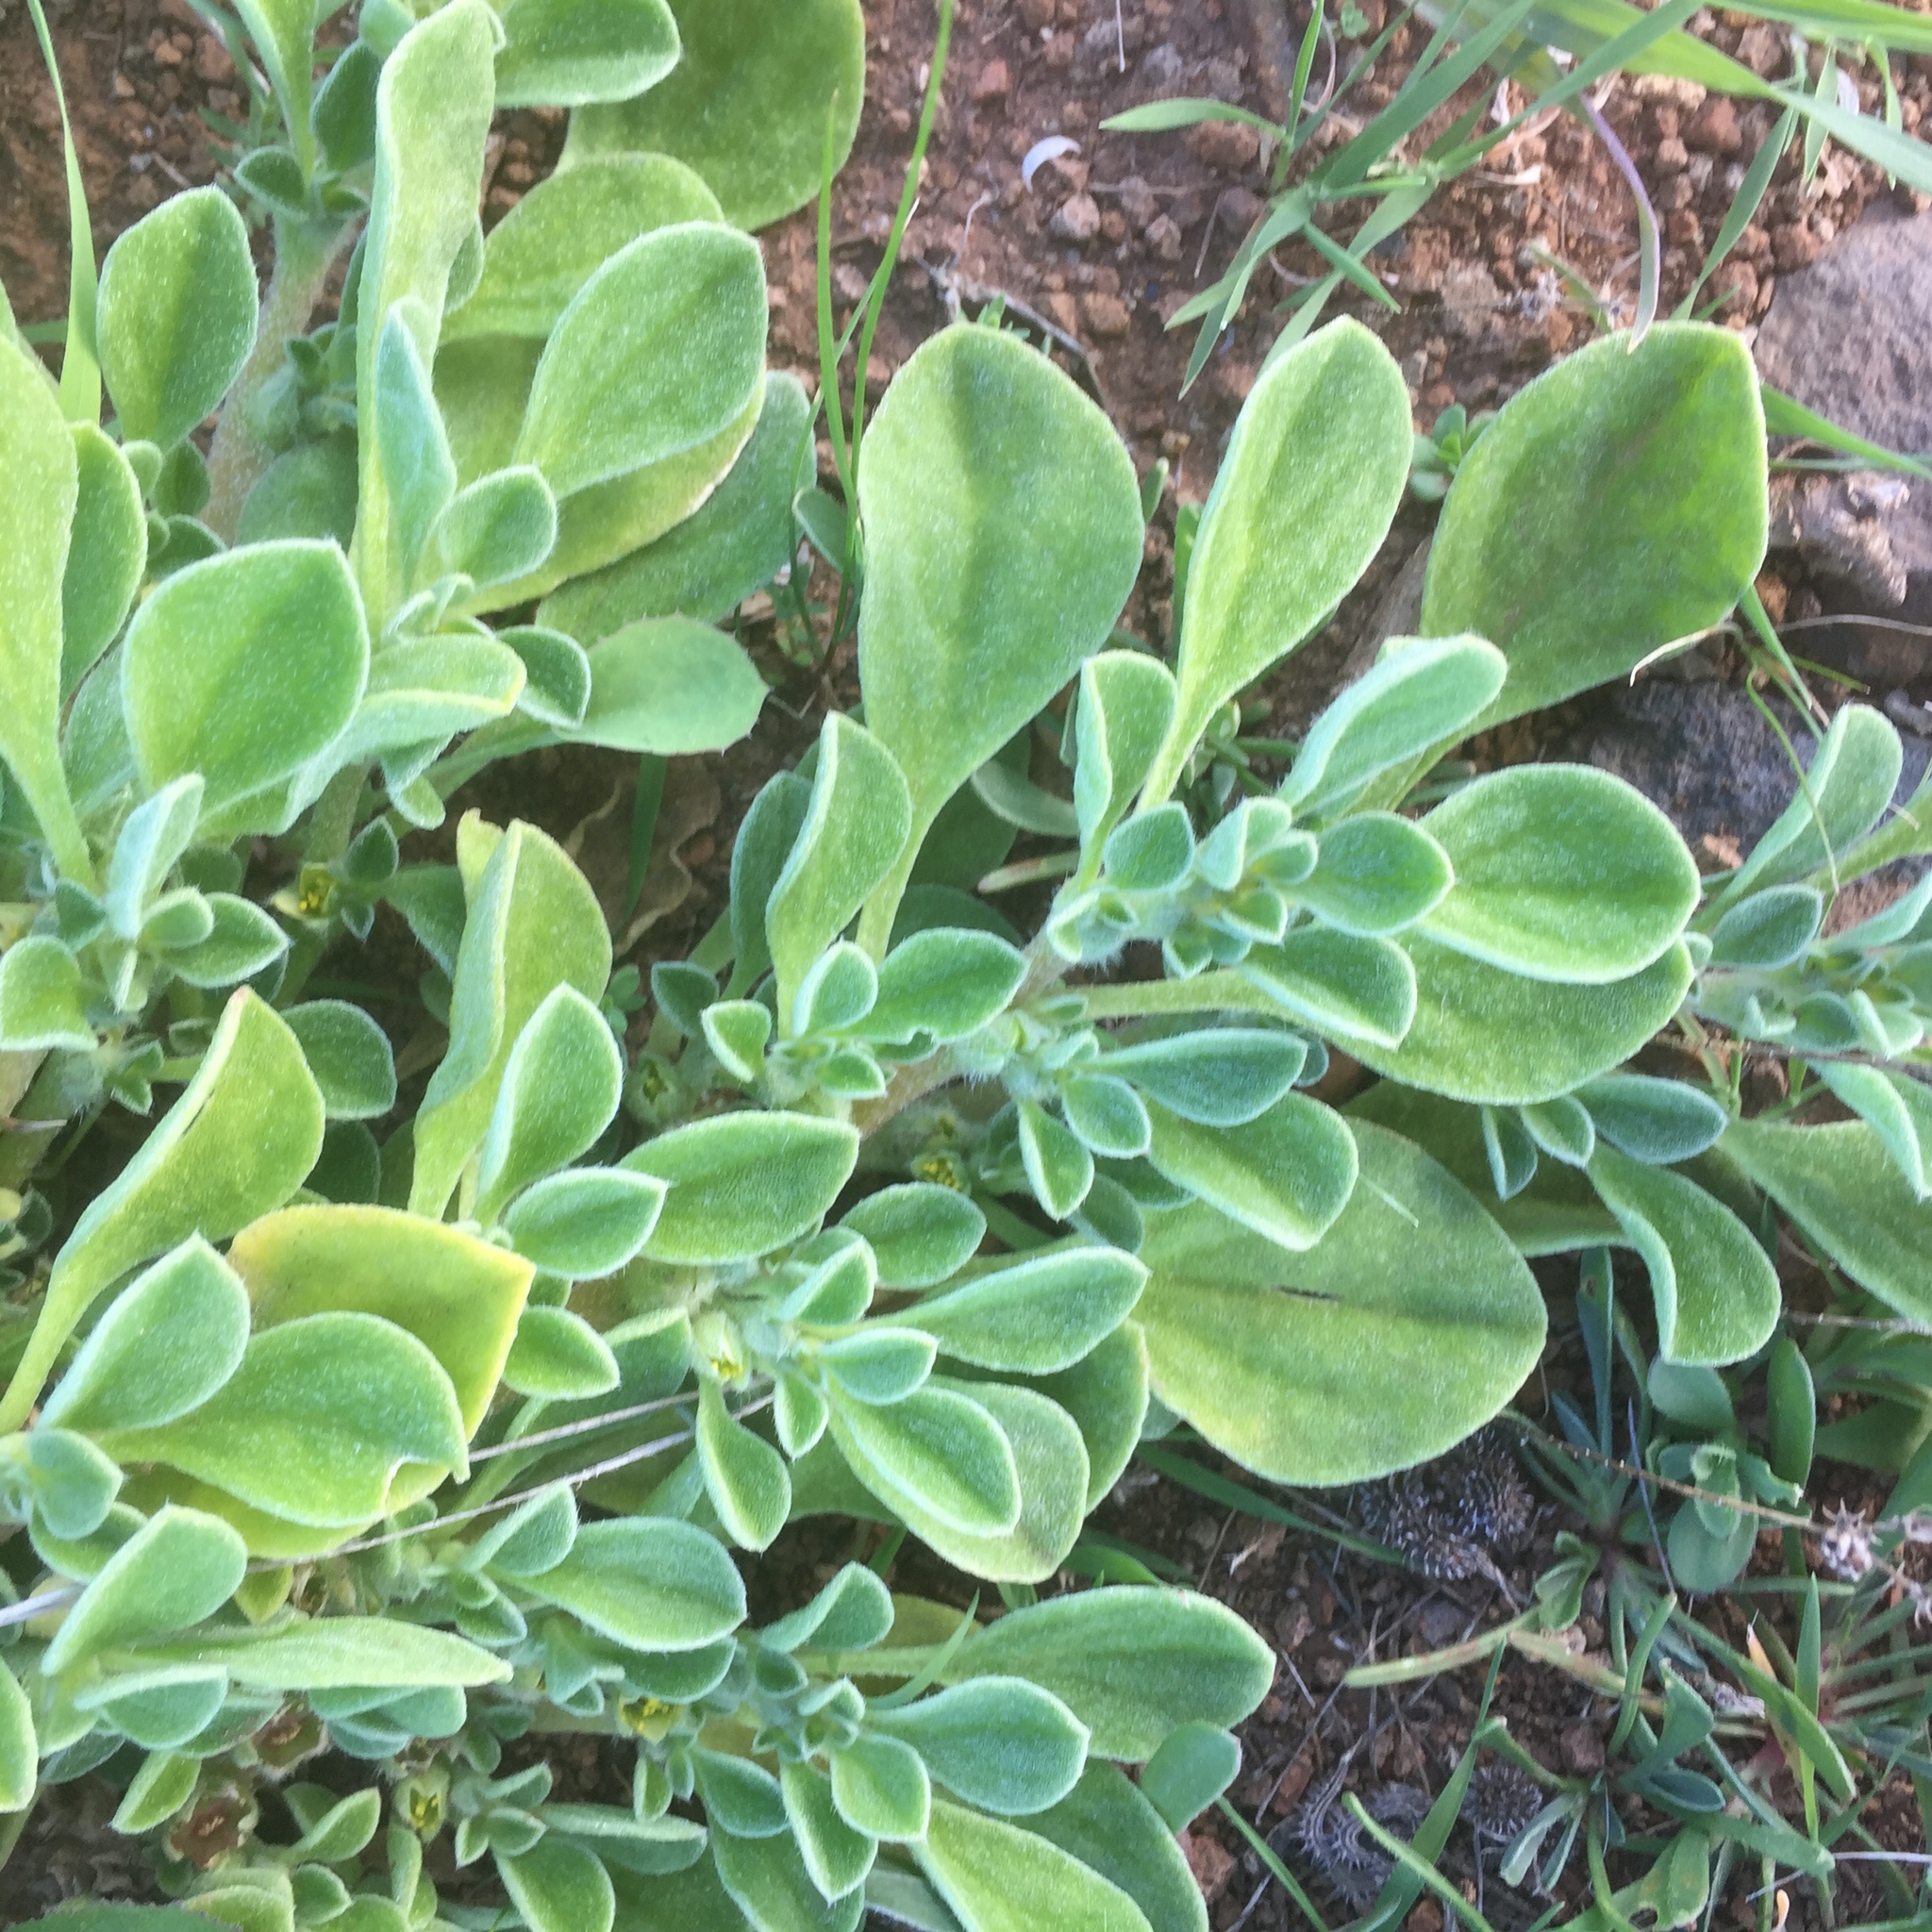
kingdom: Plantae
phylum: Tracheophyta
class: Magnoliopsida
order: Caryophyllales
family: Aizoaceae
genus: Aizoon
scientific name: Aizoon canariense
